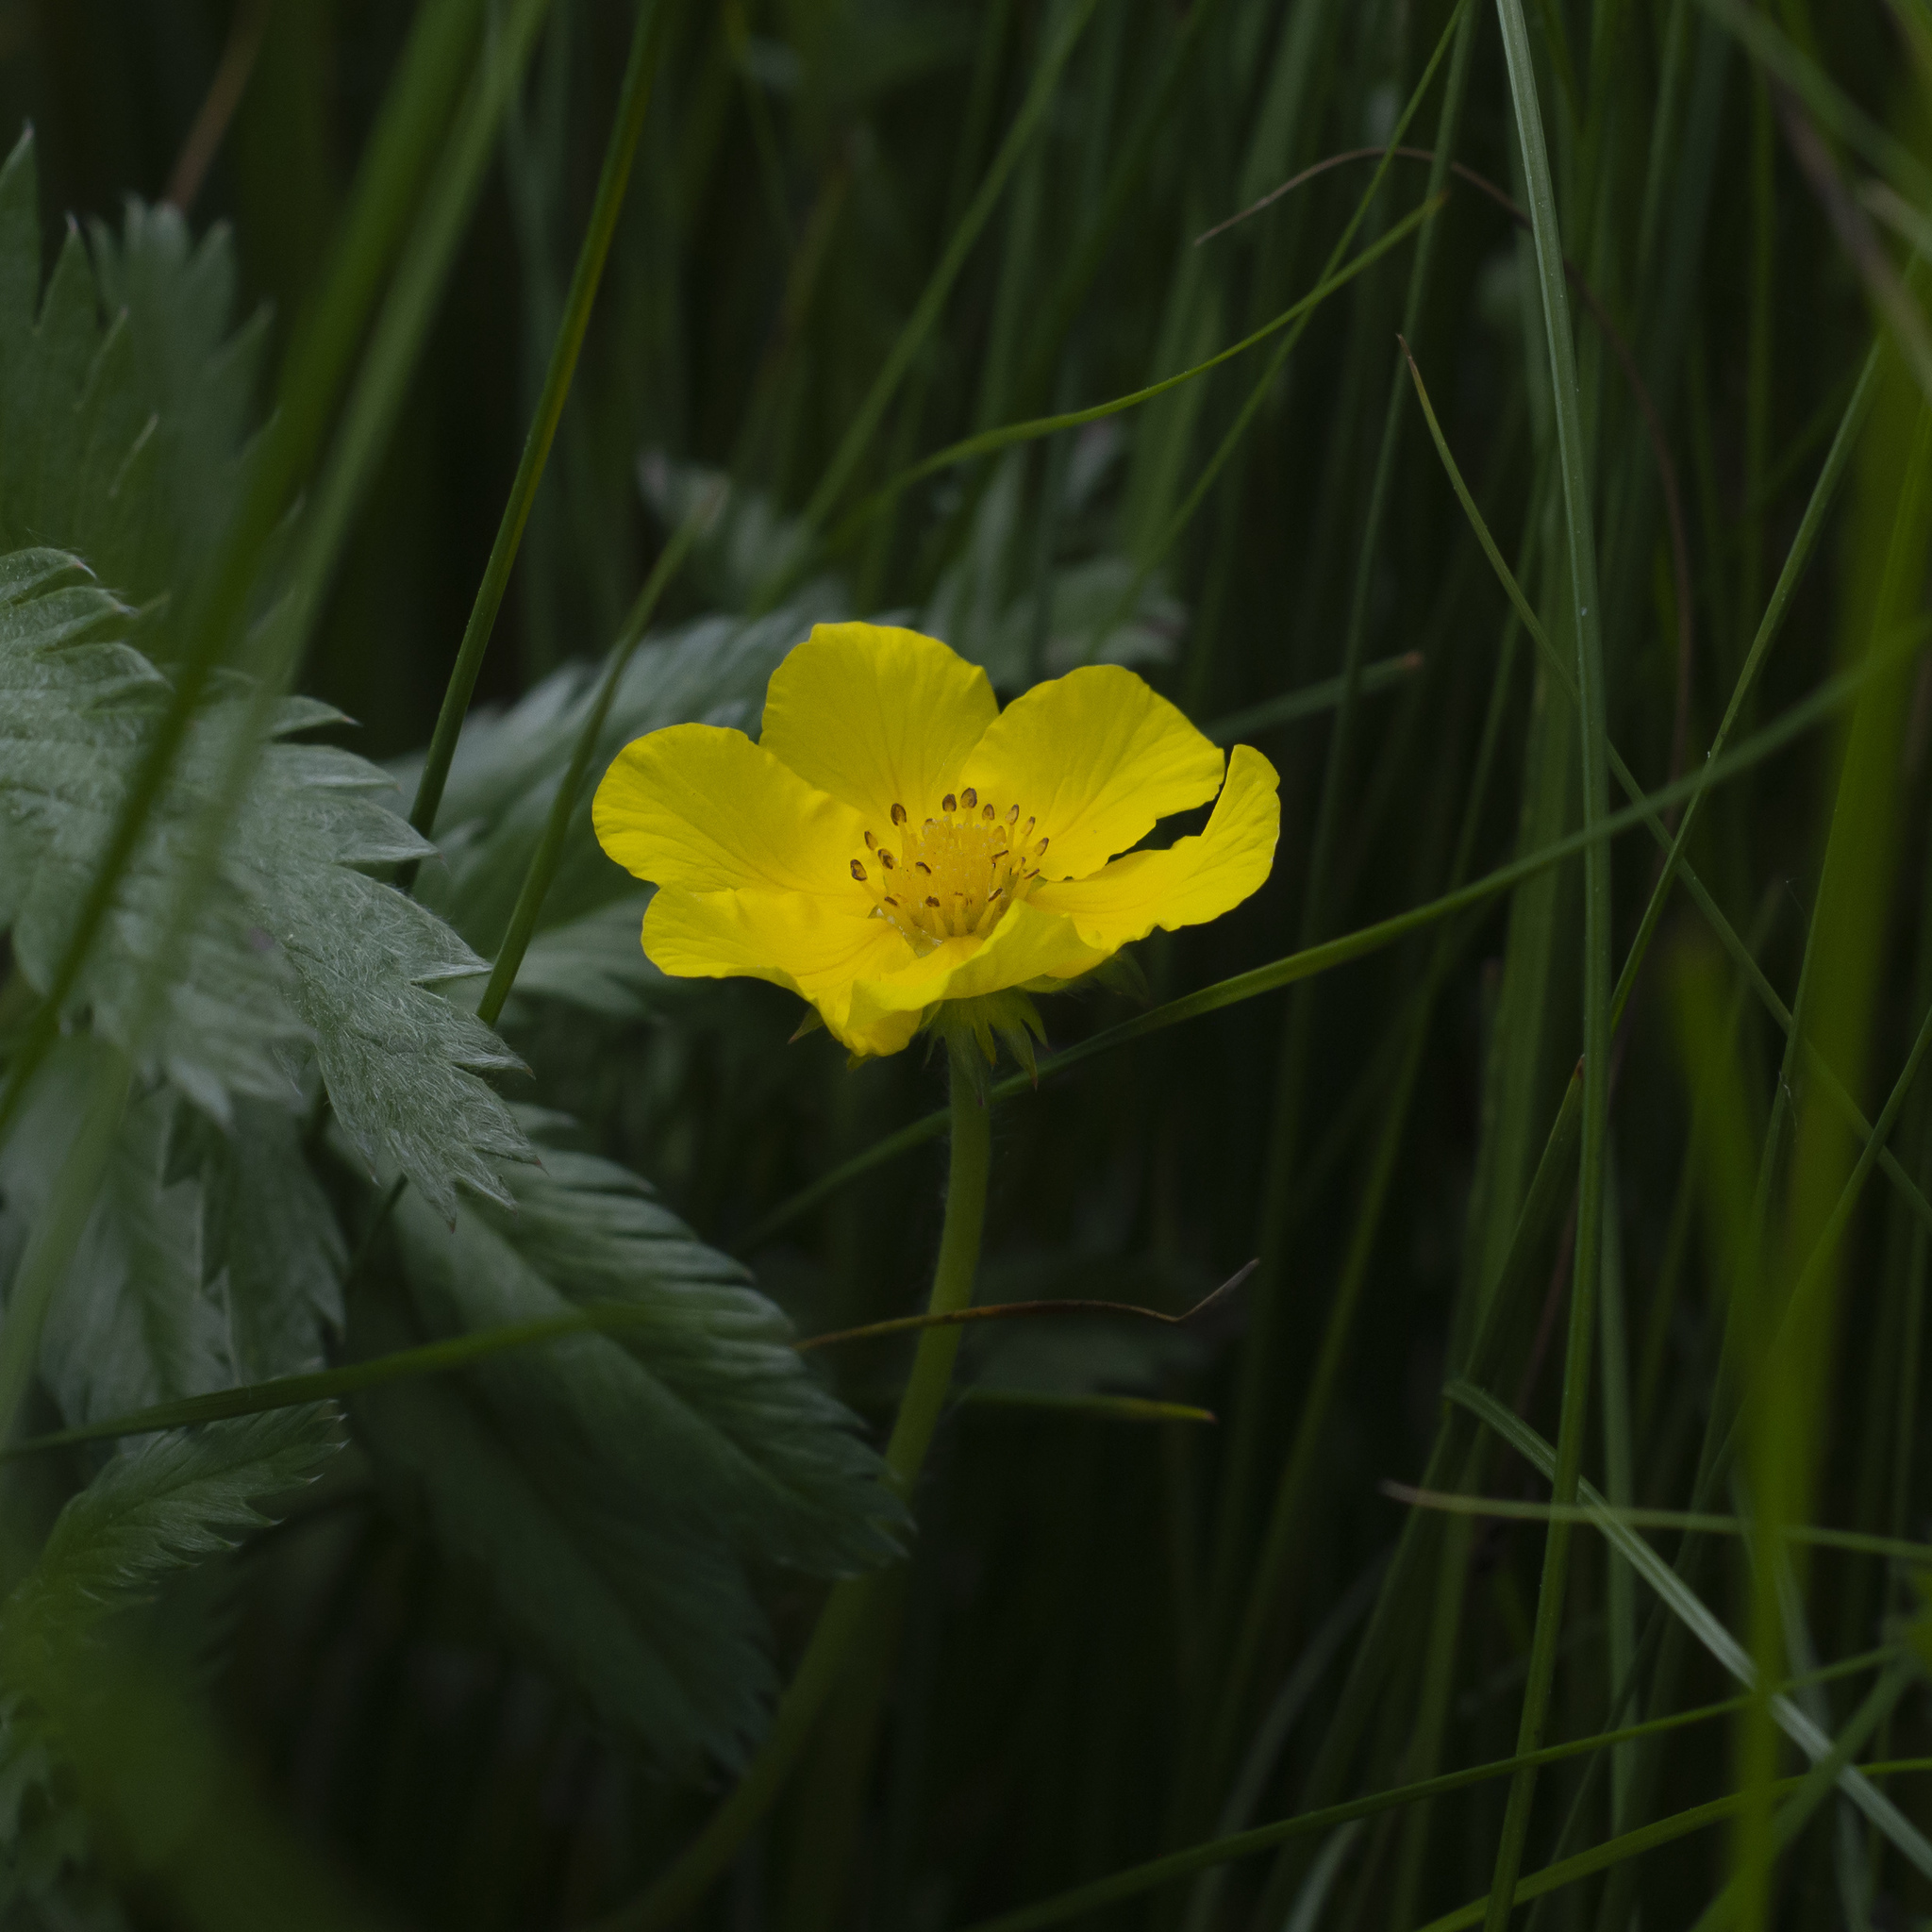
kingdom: Plantae
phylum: Tracheophyta
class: Magnoliopsida
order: Rosales
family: Rosaceae
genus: Argentina
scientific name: Argentina anserina
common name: Common silverweed
